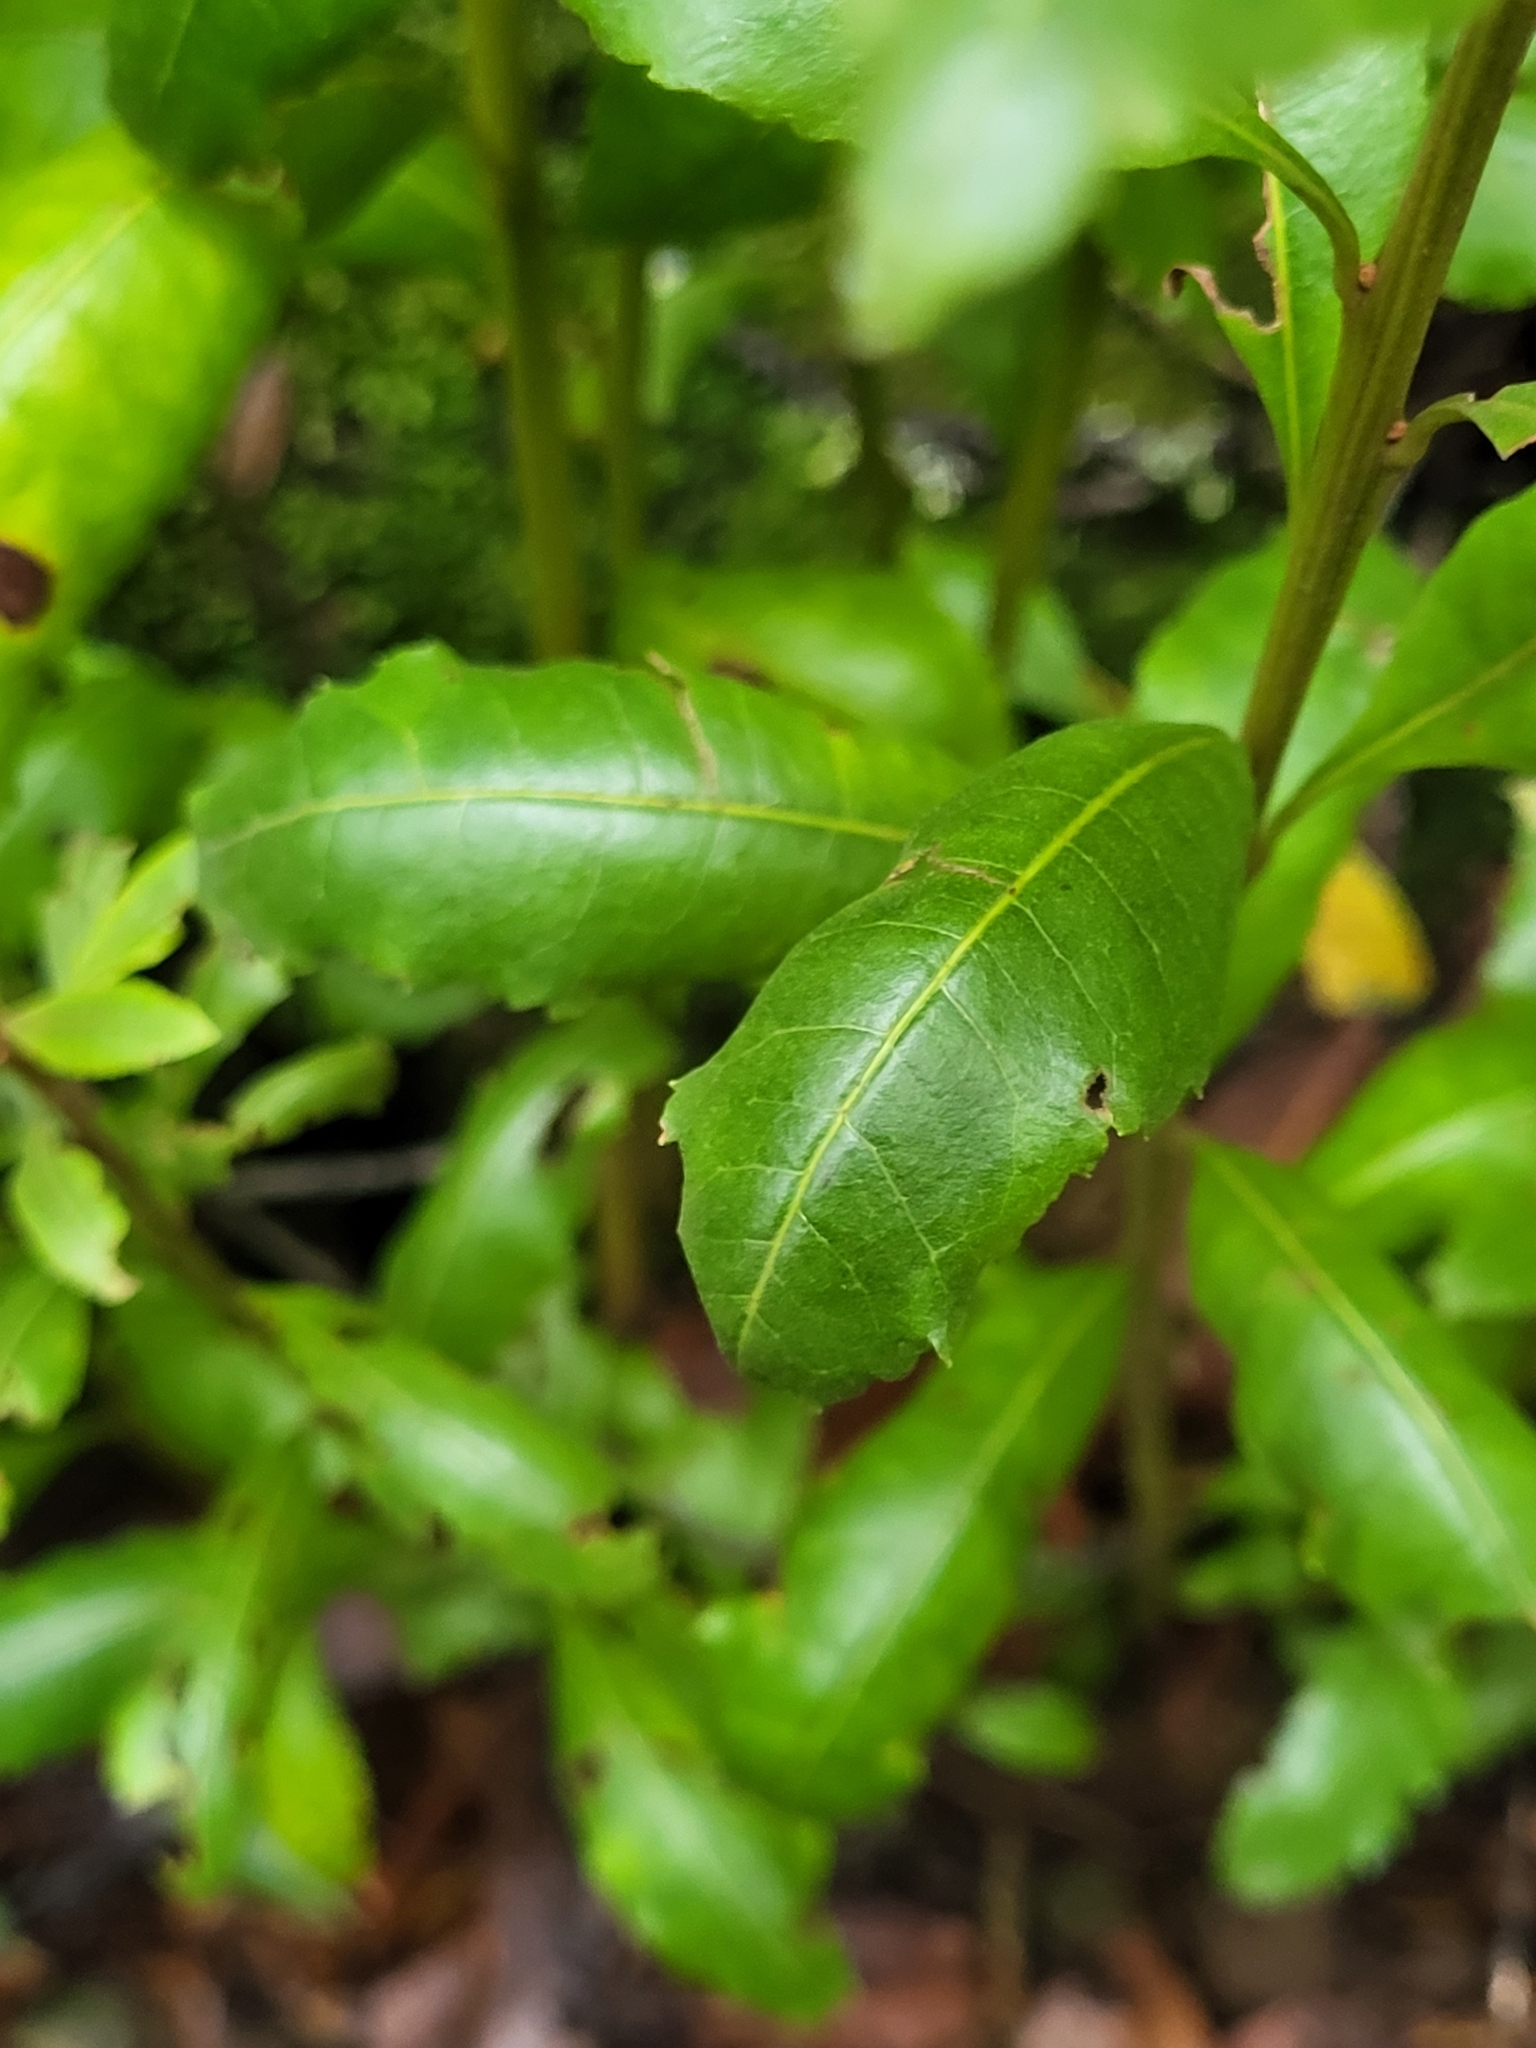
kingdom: Plantae
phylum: Tracheophyta
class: Magnoliopsida
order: Fagales
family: Myricaceae
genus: Morella
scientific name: Morella faya
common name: Firetree
